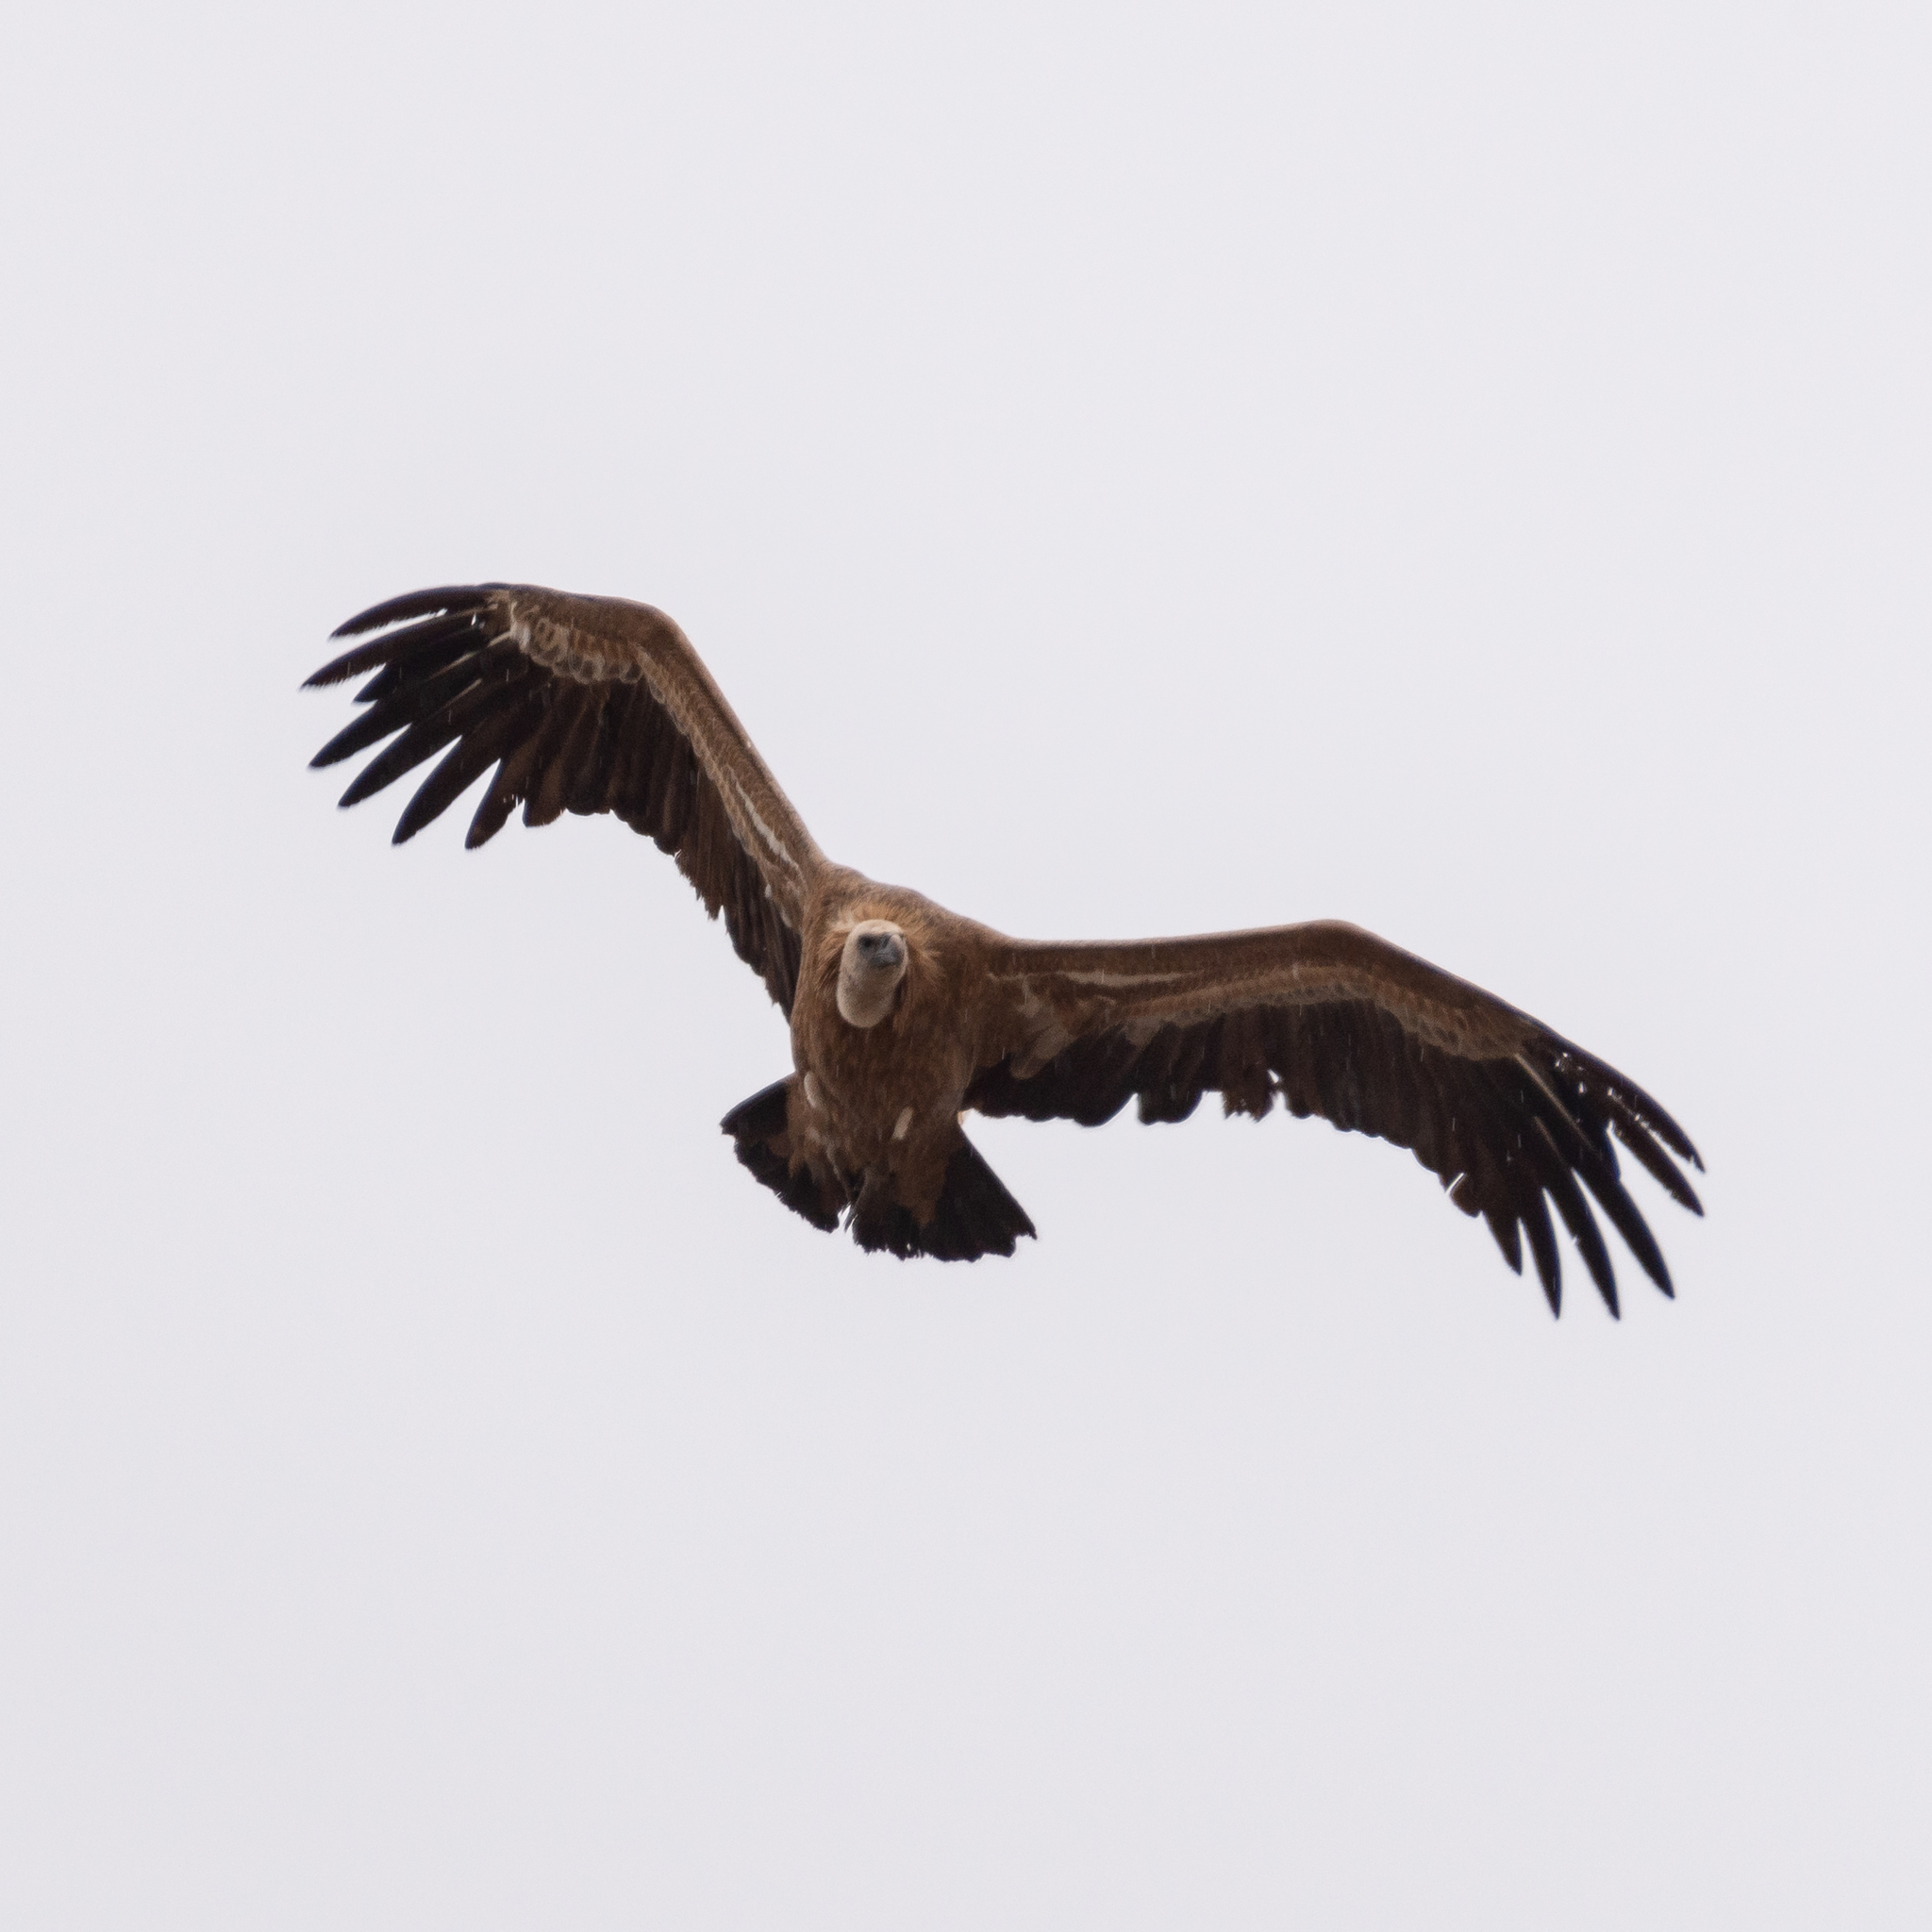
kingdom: Animalia
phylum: Chordata
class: Aves
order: Accipitriformes
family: Accipitridae
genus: Gyps
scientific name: Gyps fulvus
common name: Griffon vulture
